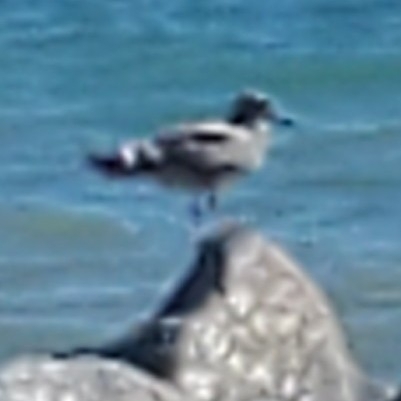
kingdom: Animalia
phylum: Chordata
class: Aves
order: Charadriiformes
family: Laridae
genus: Larus
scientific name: Larus
